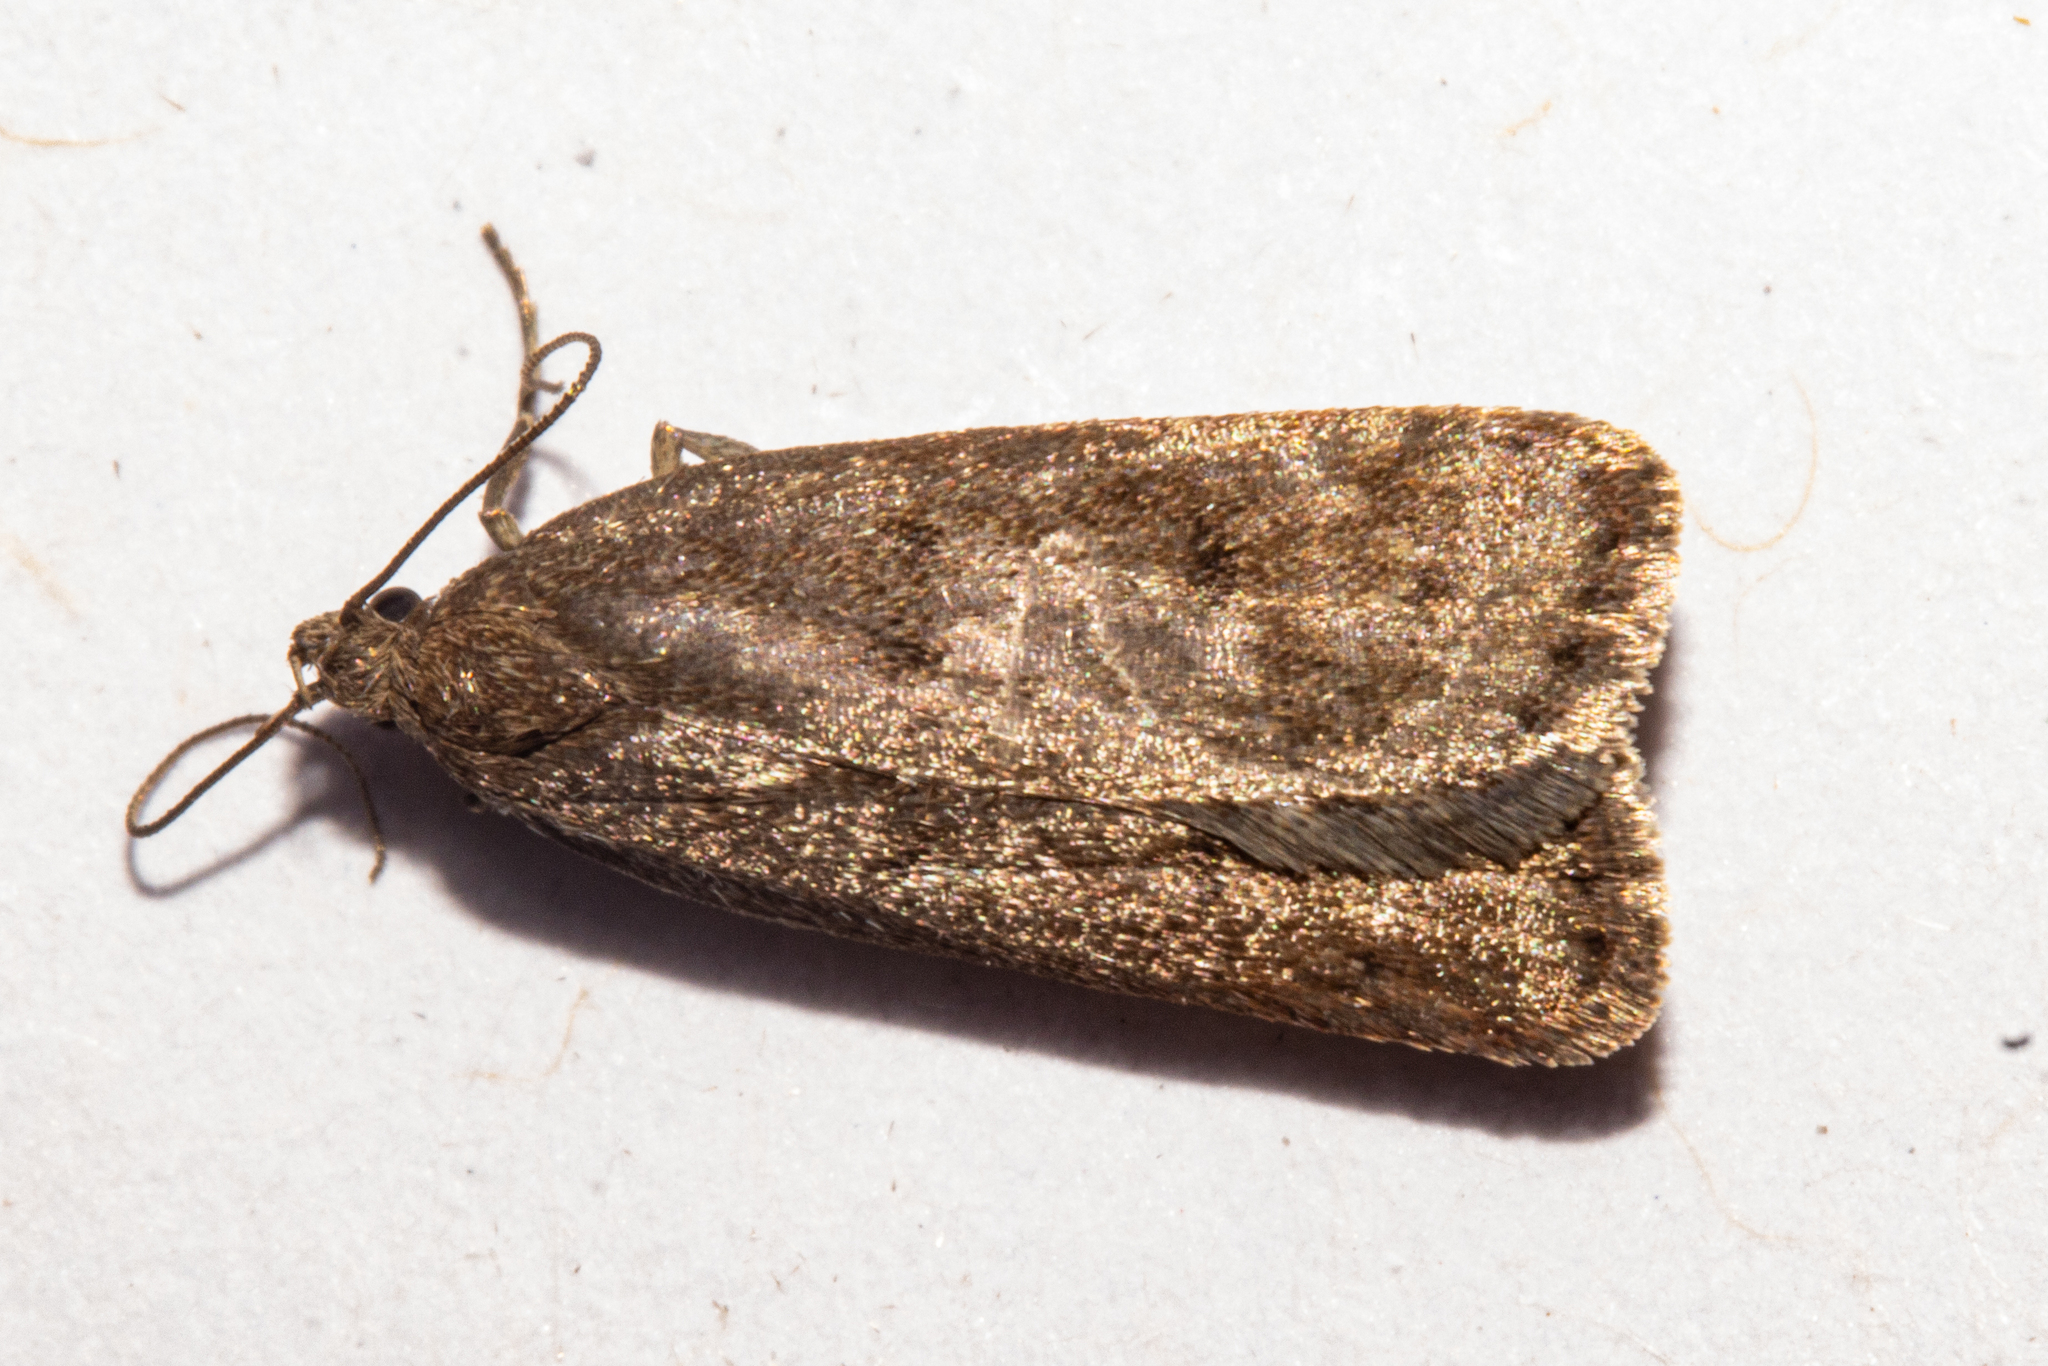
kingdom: Animalia
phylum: Arthropoda
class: Insecta
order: Lepidoptera
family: Depressariidae
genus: Phaeosaces
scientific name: Phaeosaces apocrypta
